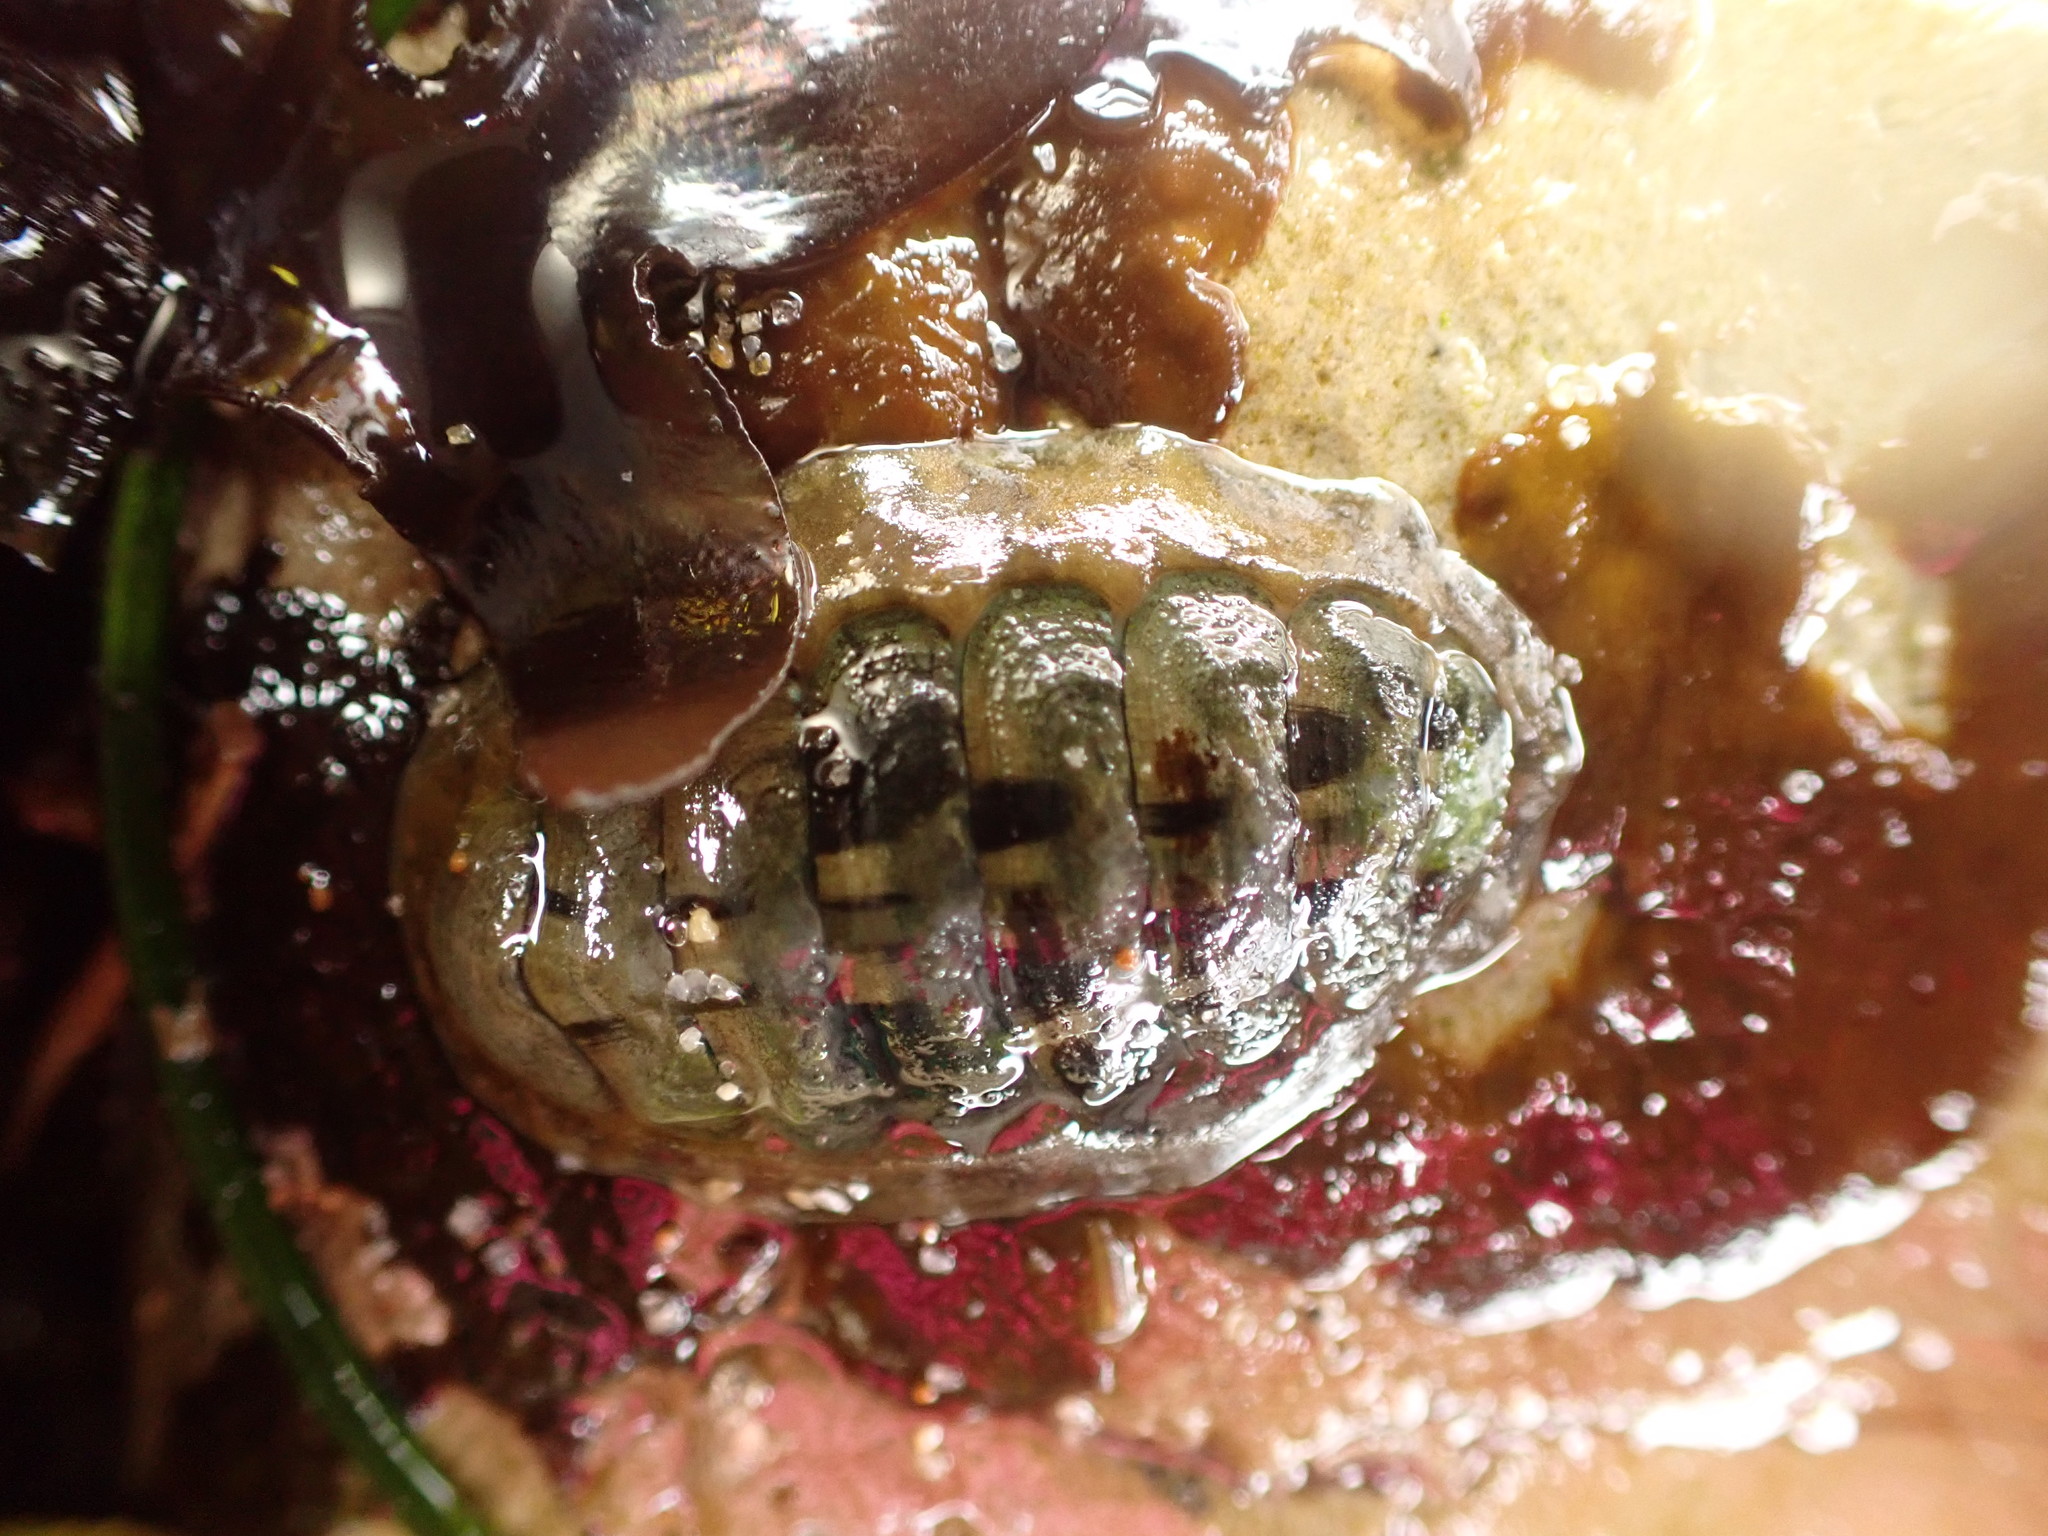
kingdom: Animalia
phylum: Mollusca
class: Polyplacophora
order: Chitonida
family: Tonicellidae
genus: Cyanoplax
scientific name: Cyanoplax hartwegii
